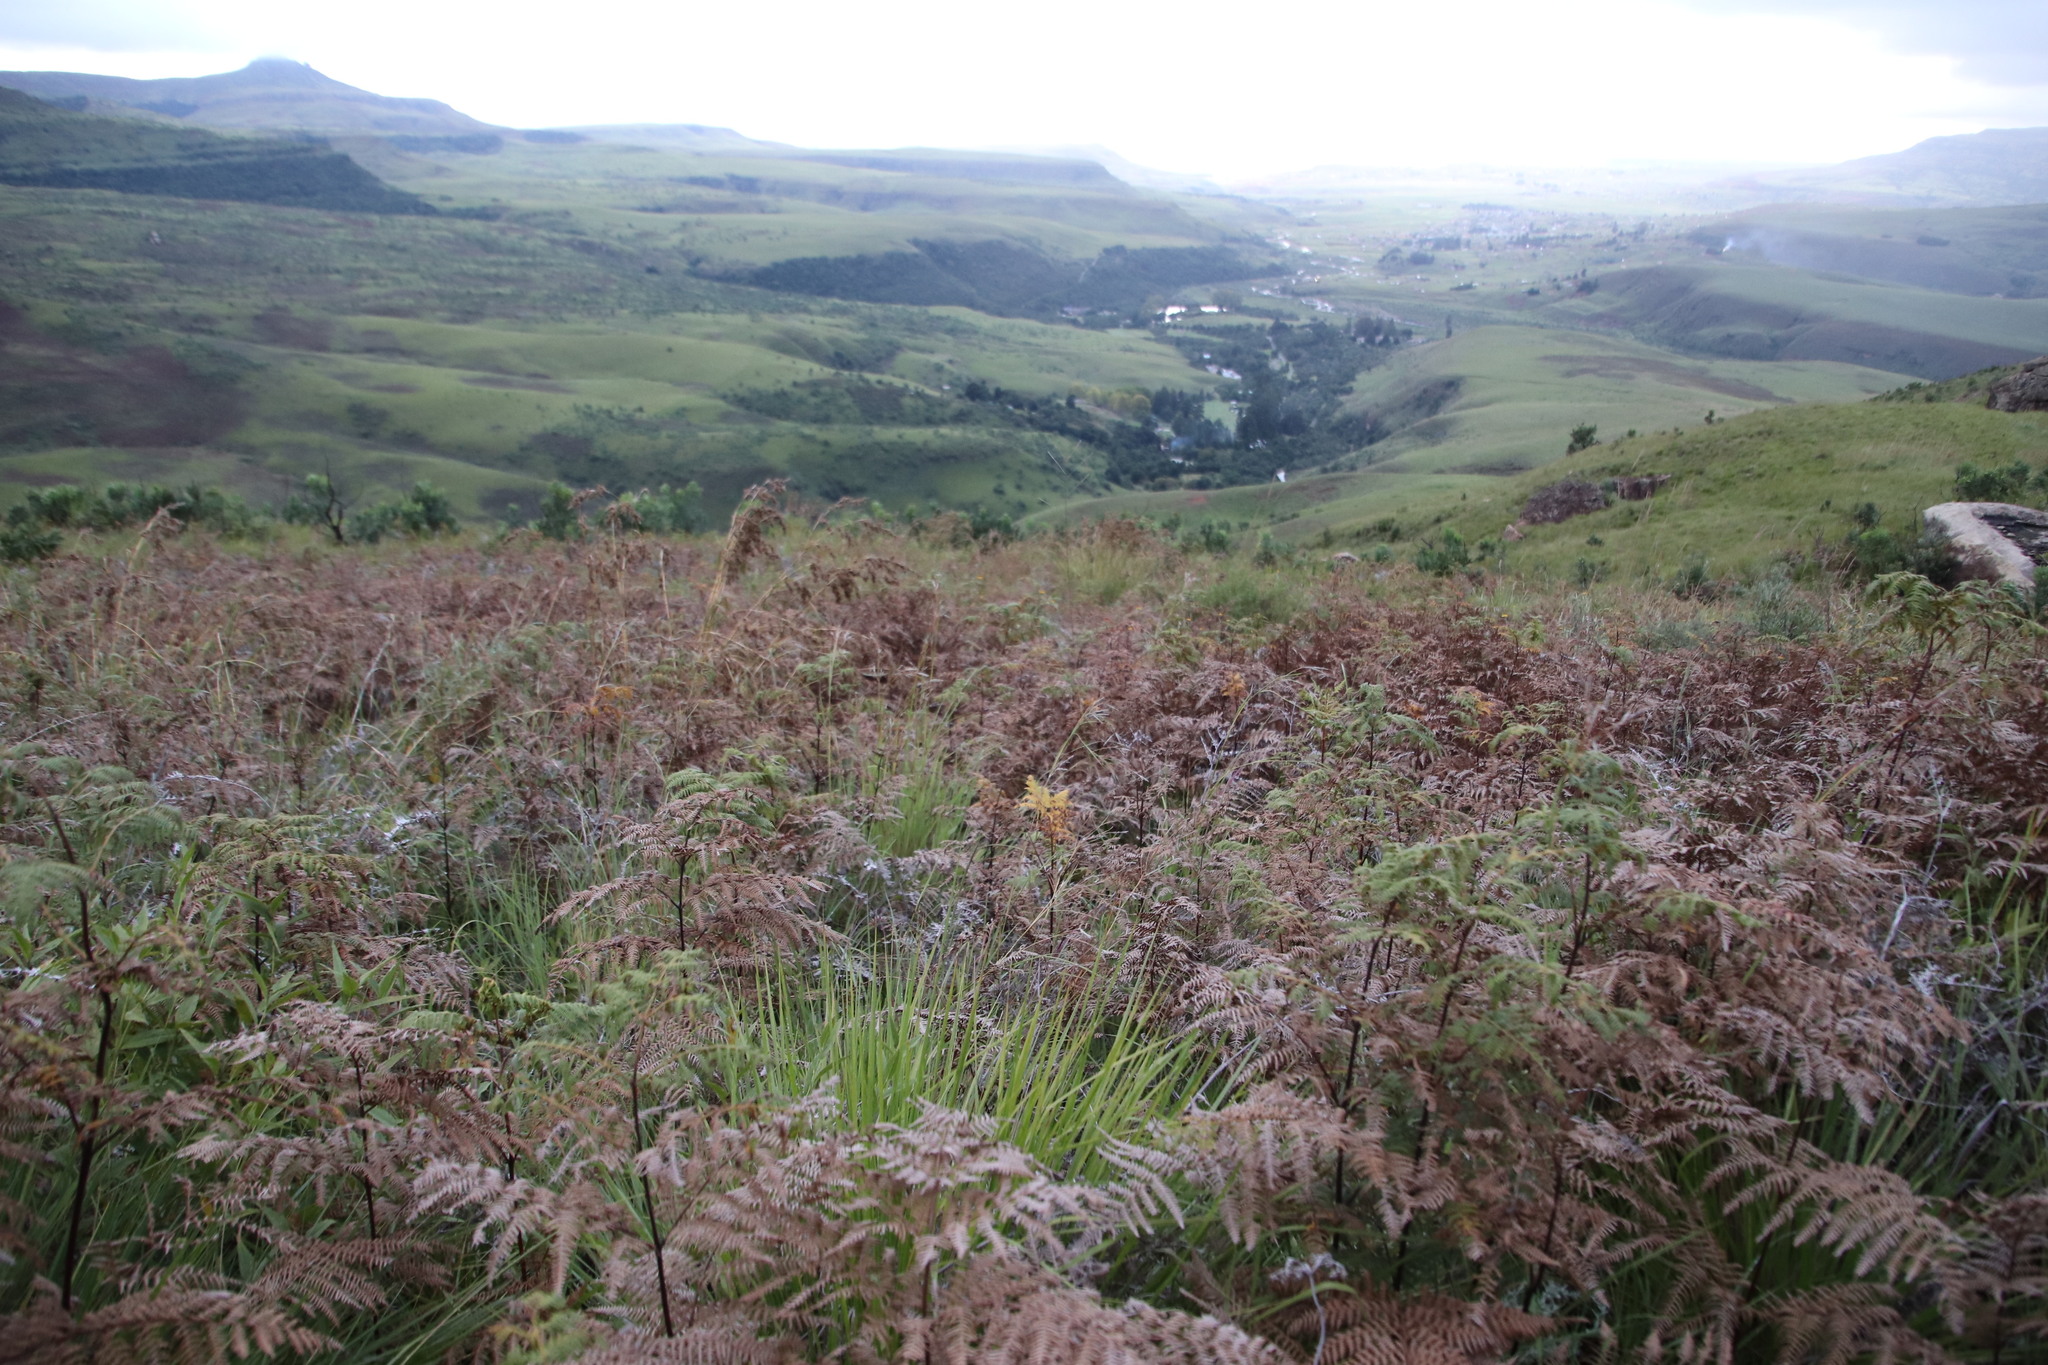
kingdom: Plantae
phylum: Tracheophyta
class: Polypodiopsida
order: Polypodiales
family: Dennstaedtiaceae
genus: Pteridium
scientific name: Pteridium aquilinum
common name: Bracken
